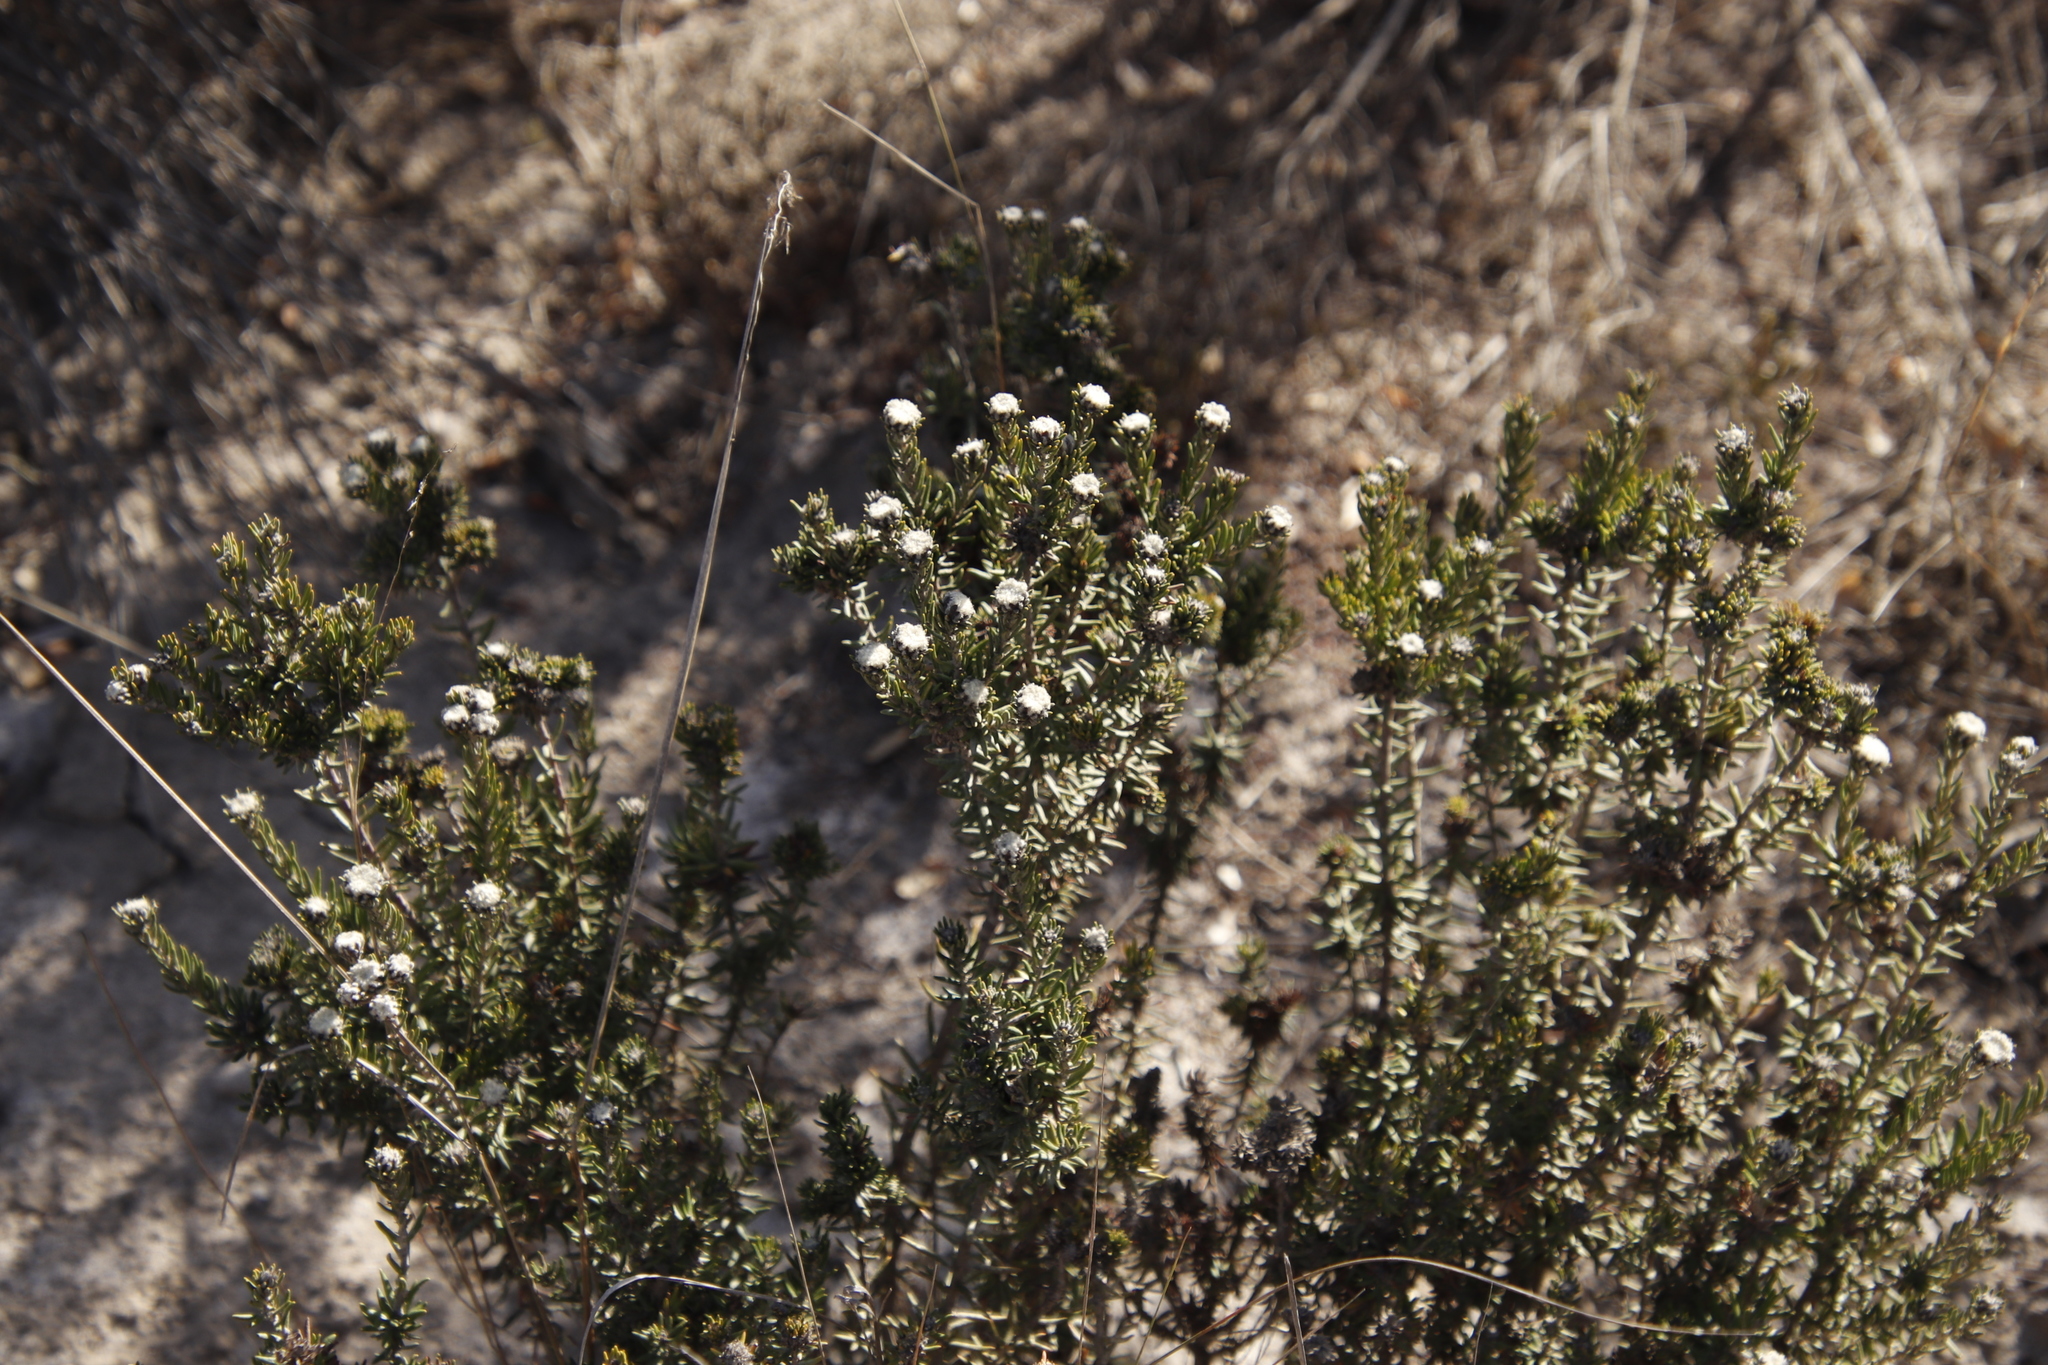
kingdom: Plantae
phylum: Tracheophyta
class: Magnoliopsida
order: Rosales
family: Rhamnaceae
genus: Trichocephalus
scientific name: Trichocephalus stipularis
